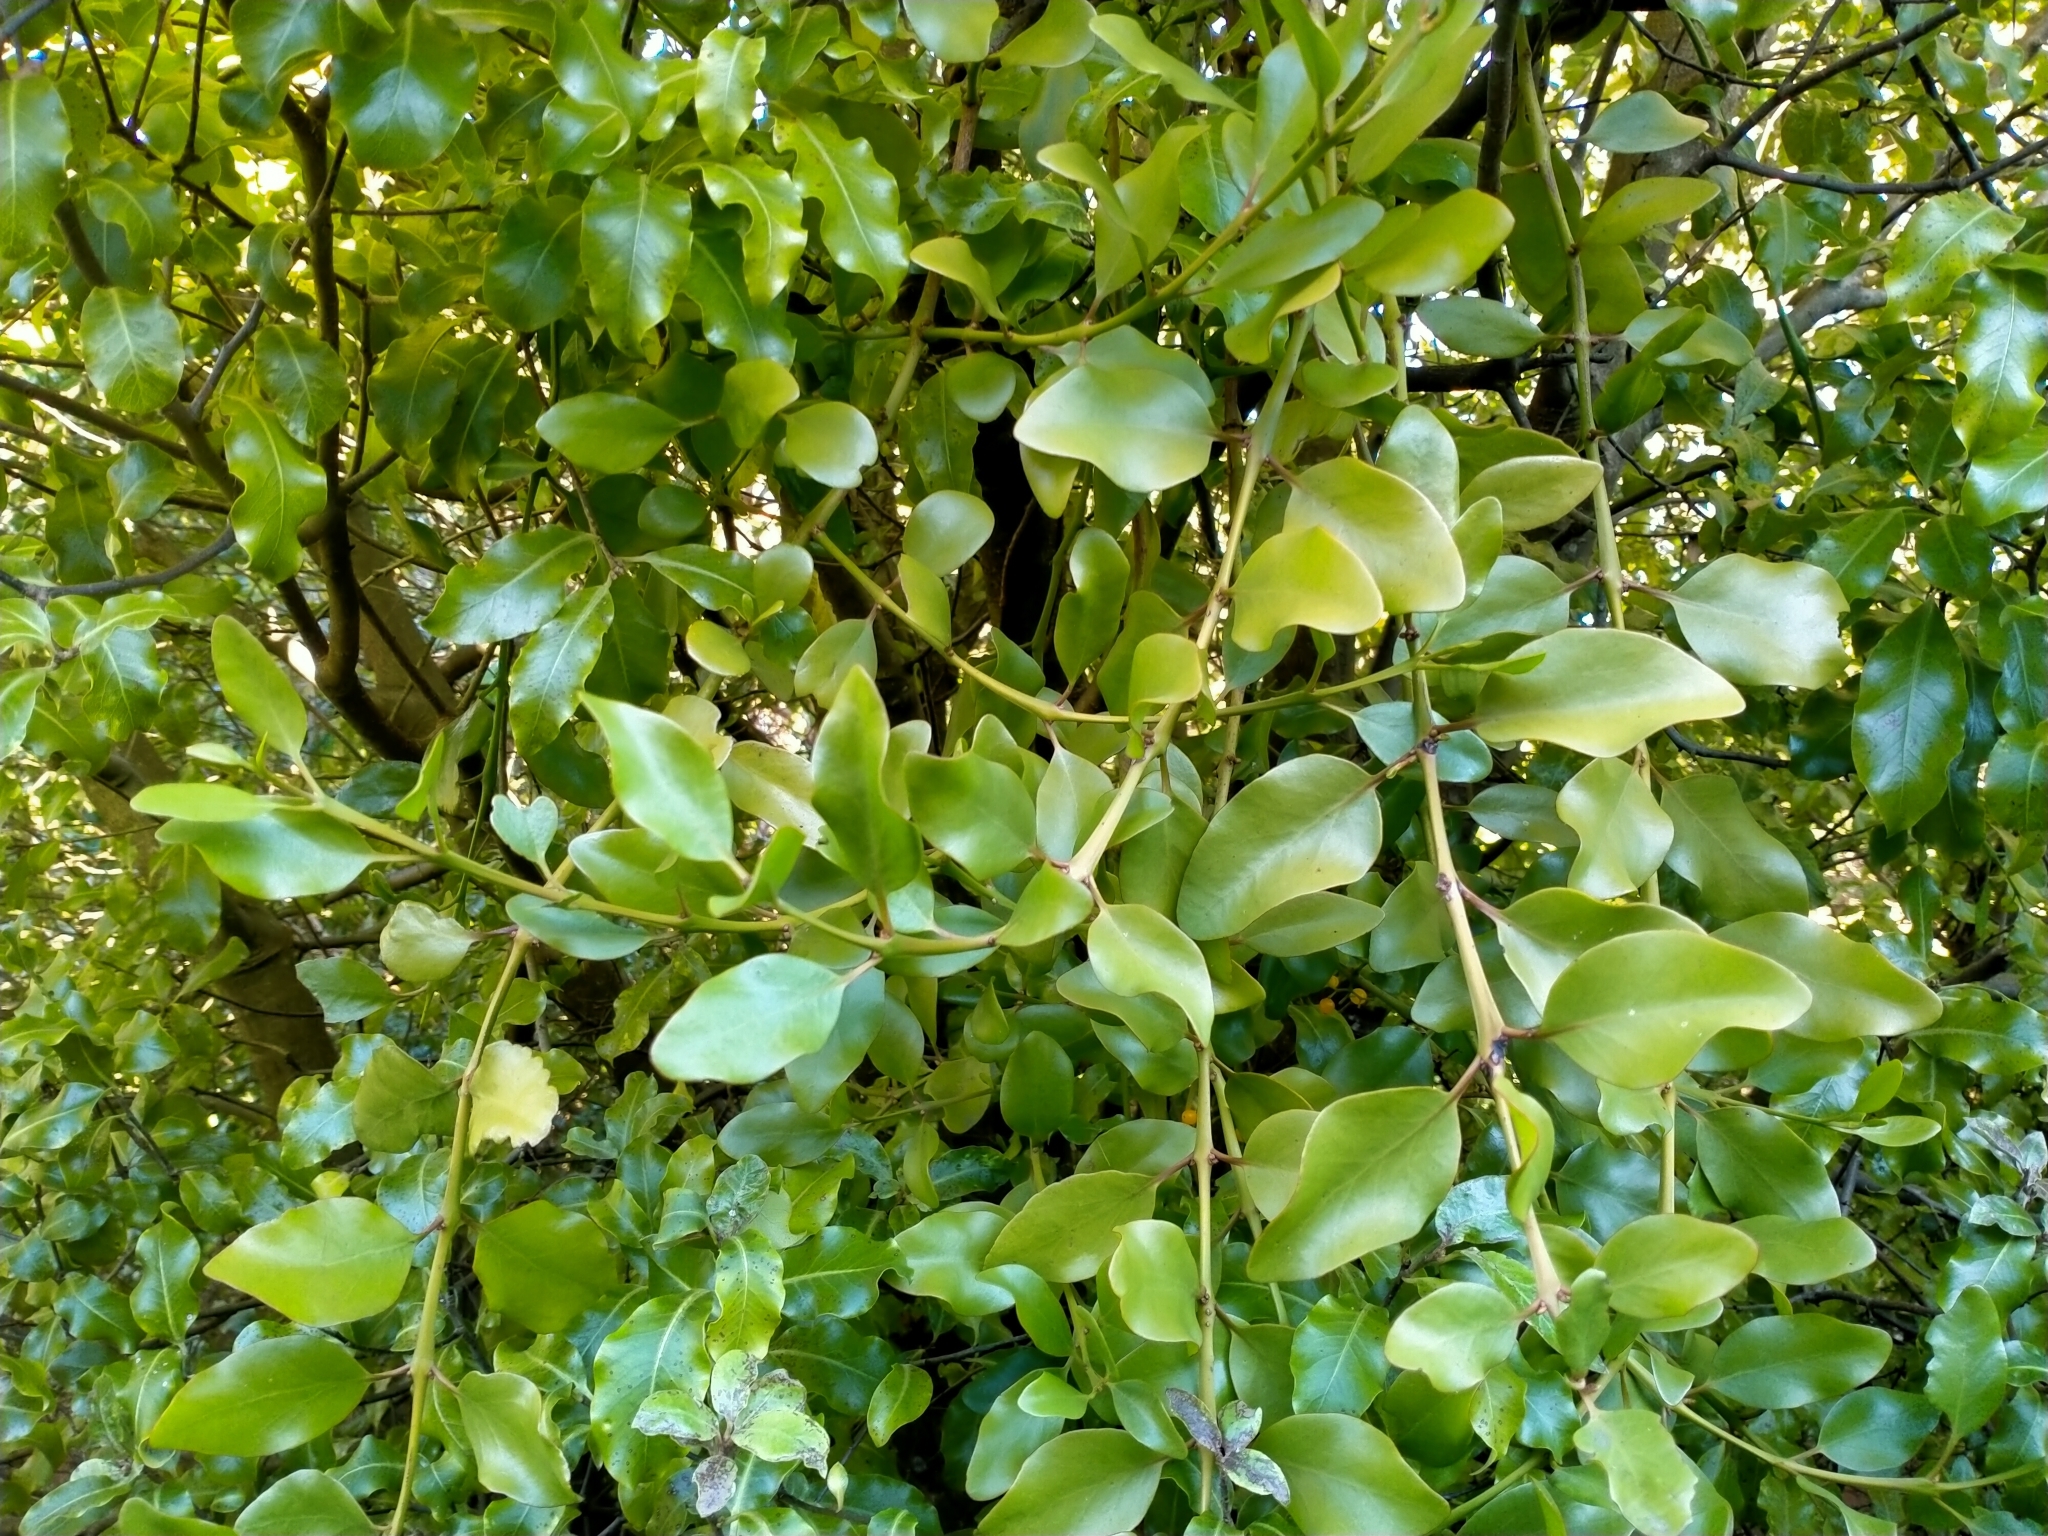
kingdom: Plantae
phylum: Tracheophyta
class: Magnoliopsida
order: Santalales
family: Loranthaceae
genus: Ileostylus
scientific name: Ileostylus micranthus
